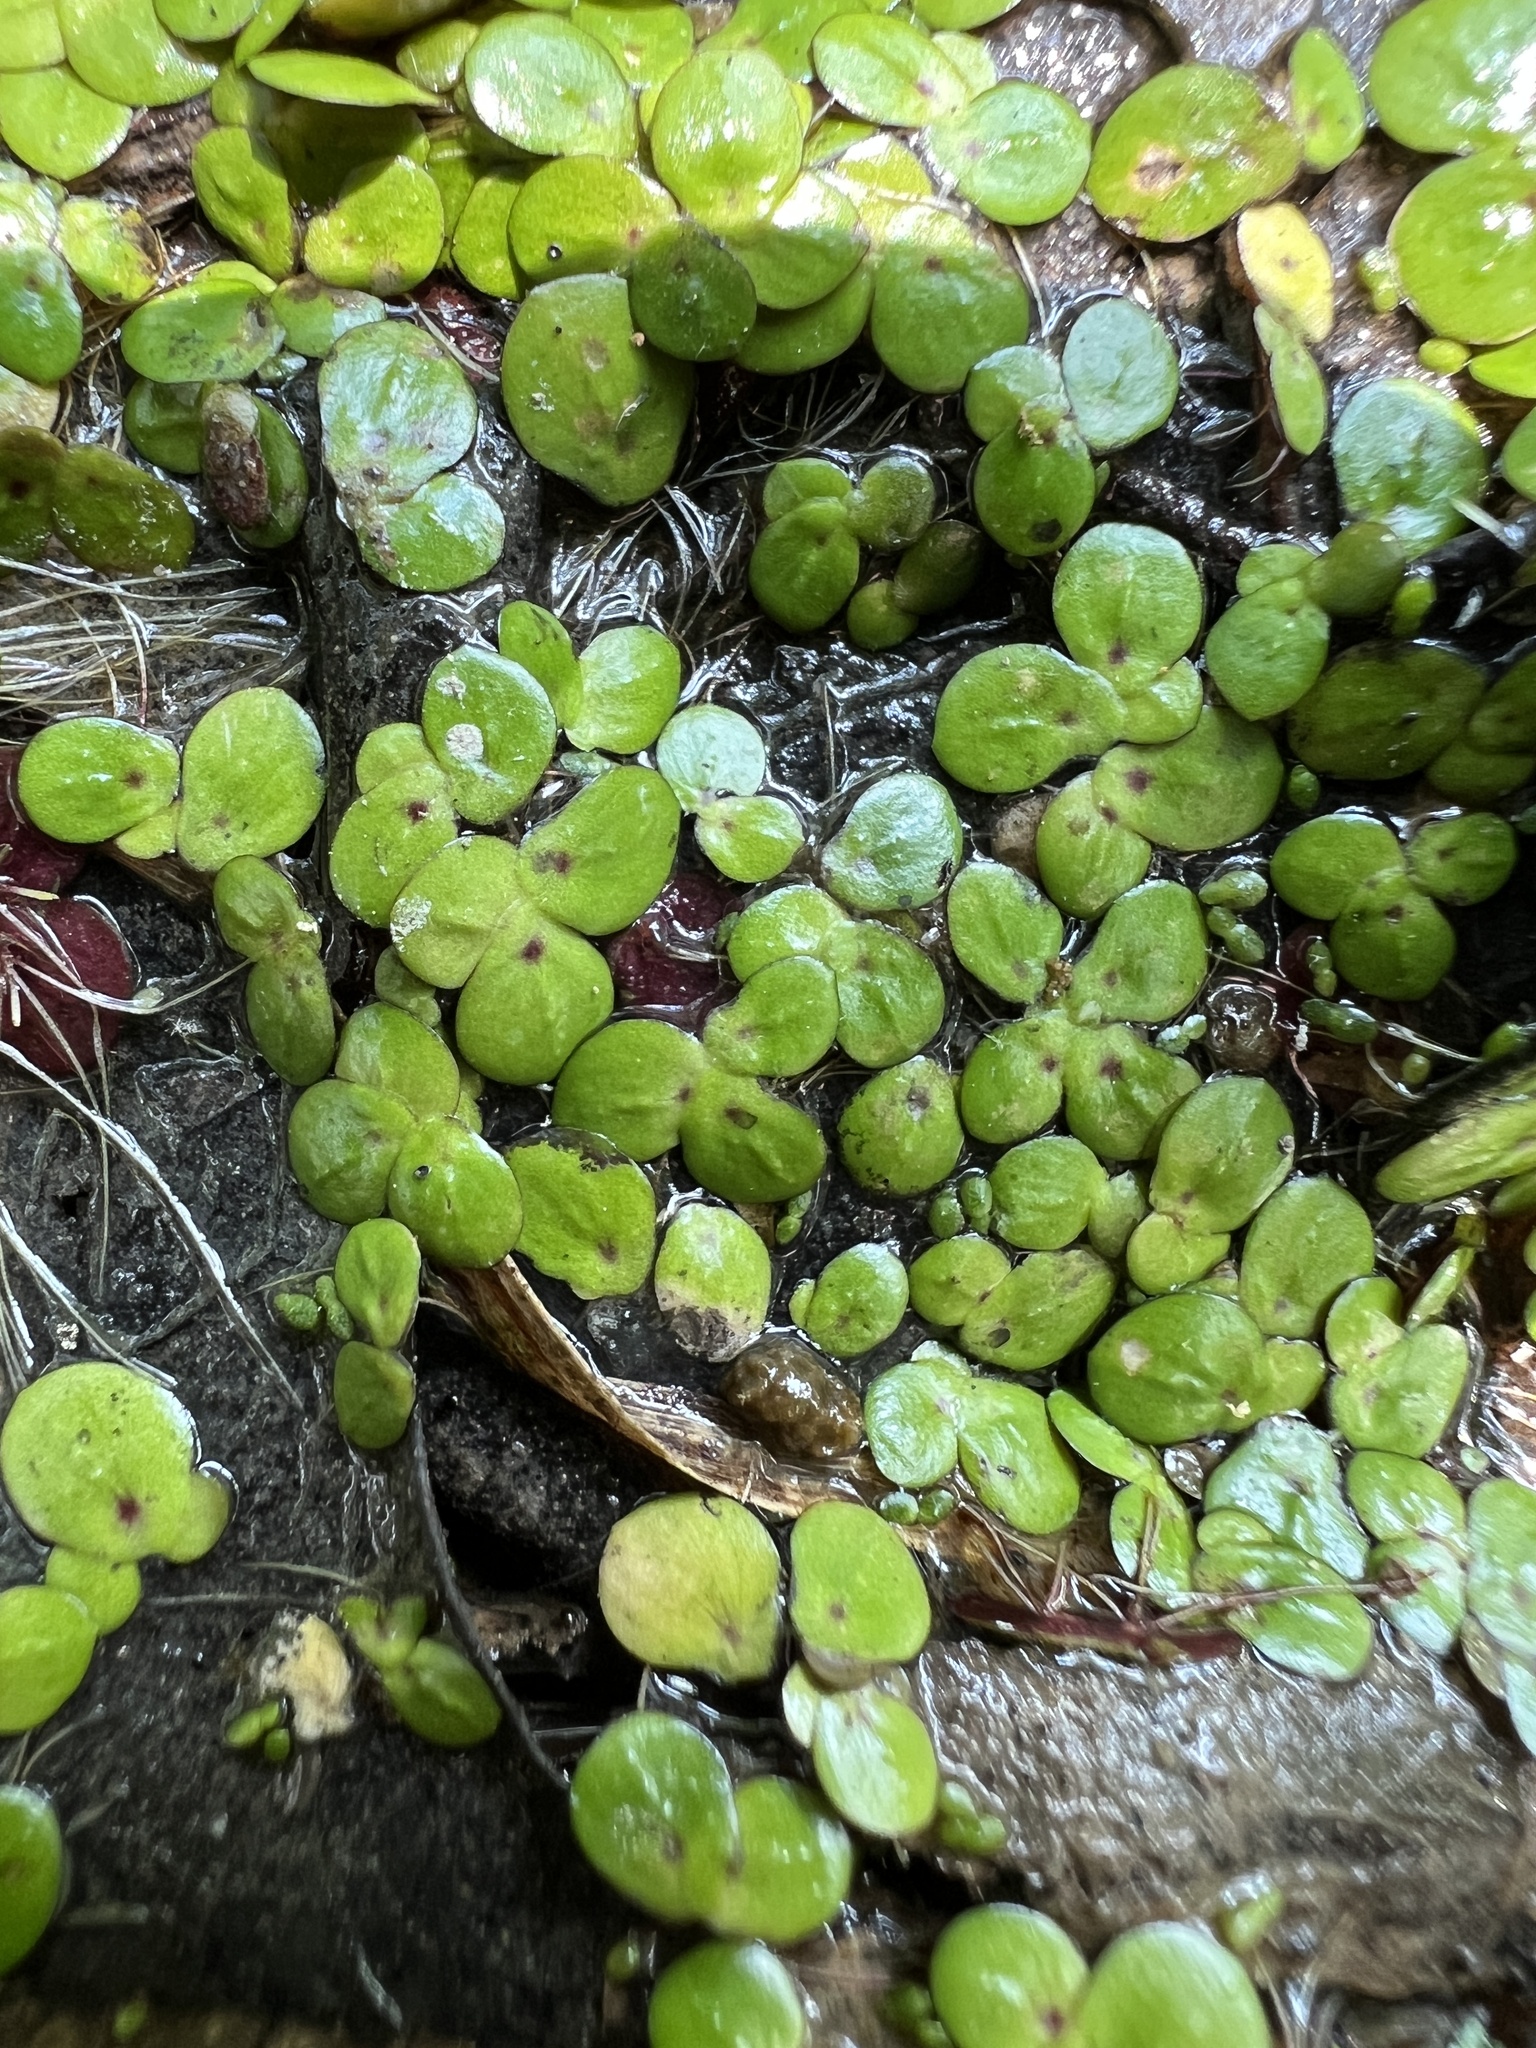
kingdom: Plantae
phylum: Tracheophyta
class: Liliopsida
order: Alismatales
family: Araceae
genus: Spirodela
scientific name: Spirodela polyrhiza
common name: Great duckweed
